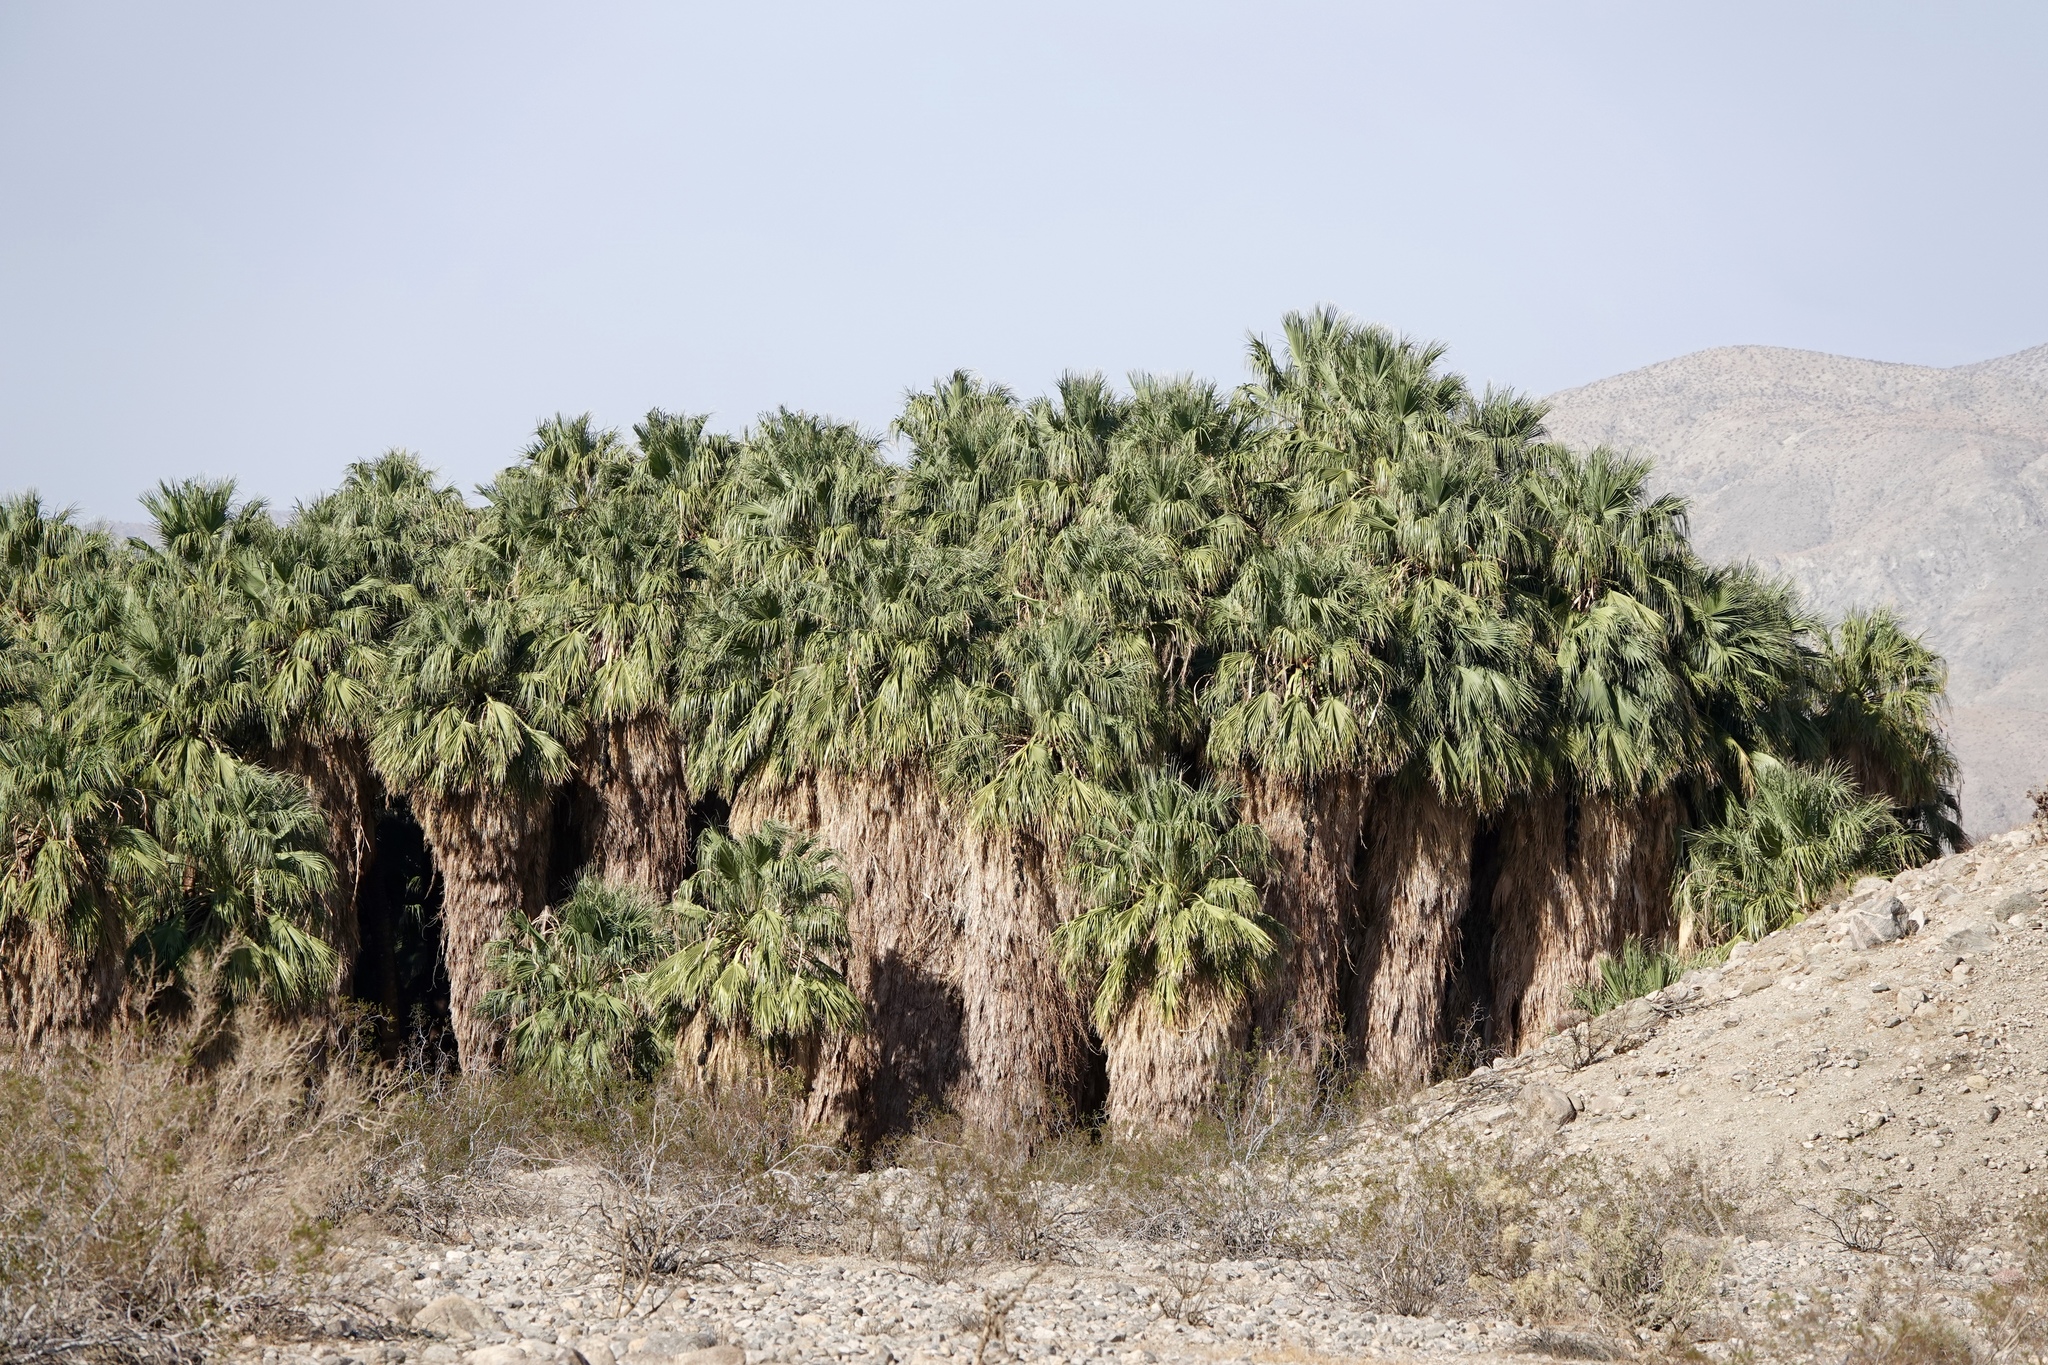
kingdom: Plantae
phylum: Tracheophyta
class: Liliopsida
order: Arecales
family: Arecaceae
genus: Washingtonia
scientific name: Washingtonia filifera
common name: California fan palm
